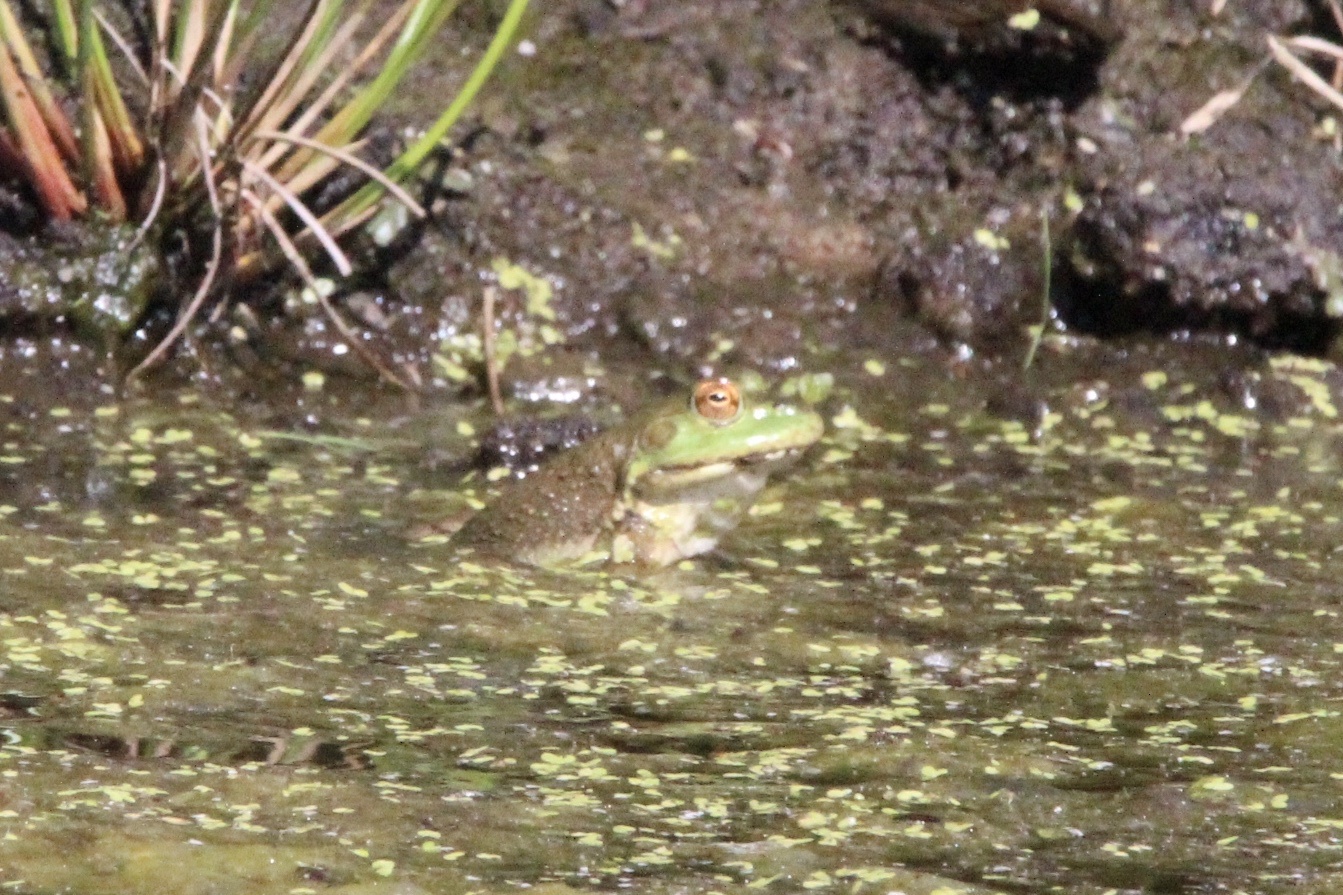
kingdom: Animalia
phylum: Chordata
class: Amphibia
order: Anura
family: Ranidae
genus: Lithobates
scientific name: Lithobates catesbeianus
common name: American bullfrog
